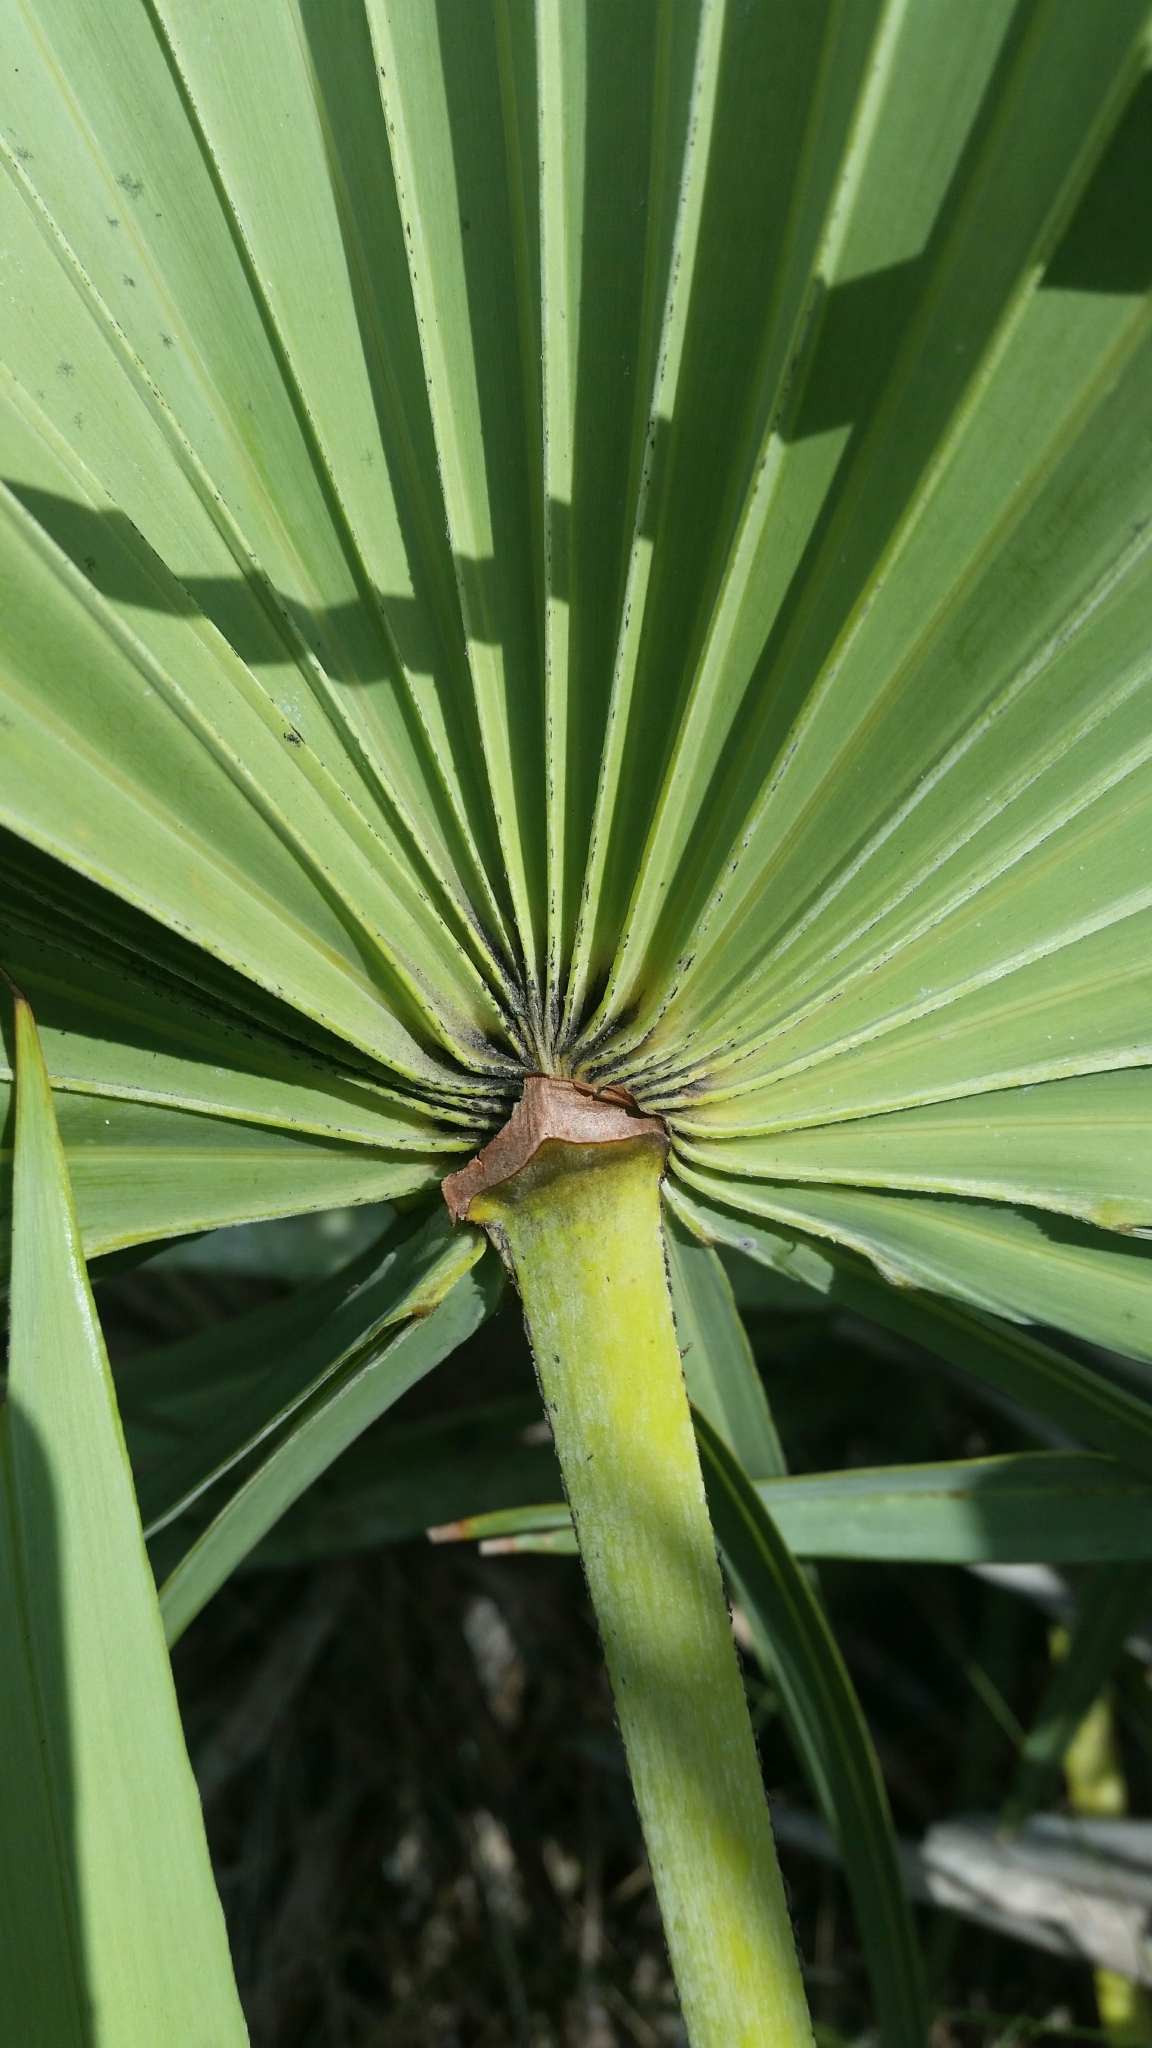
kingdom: Plantae
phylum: Tracheophyta
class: Liliopsida
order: Arecales
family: Arecaceae
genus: Serenoa
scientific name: Serenoa repens
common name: Saw-palmetto
